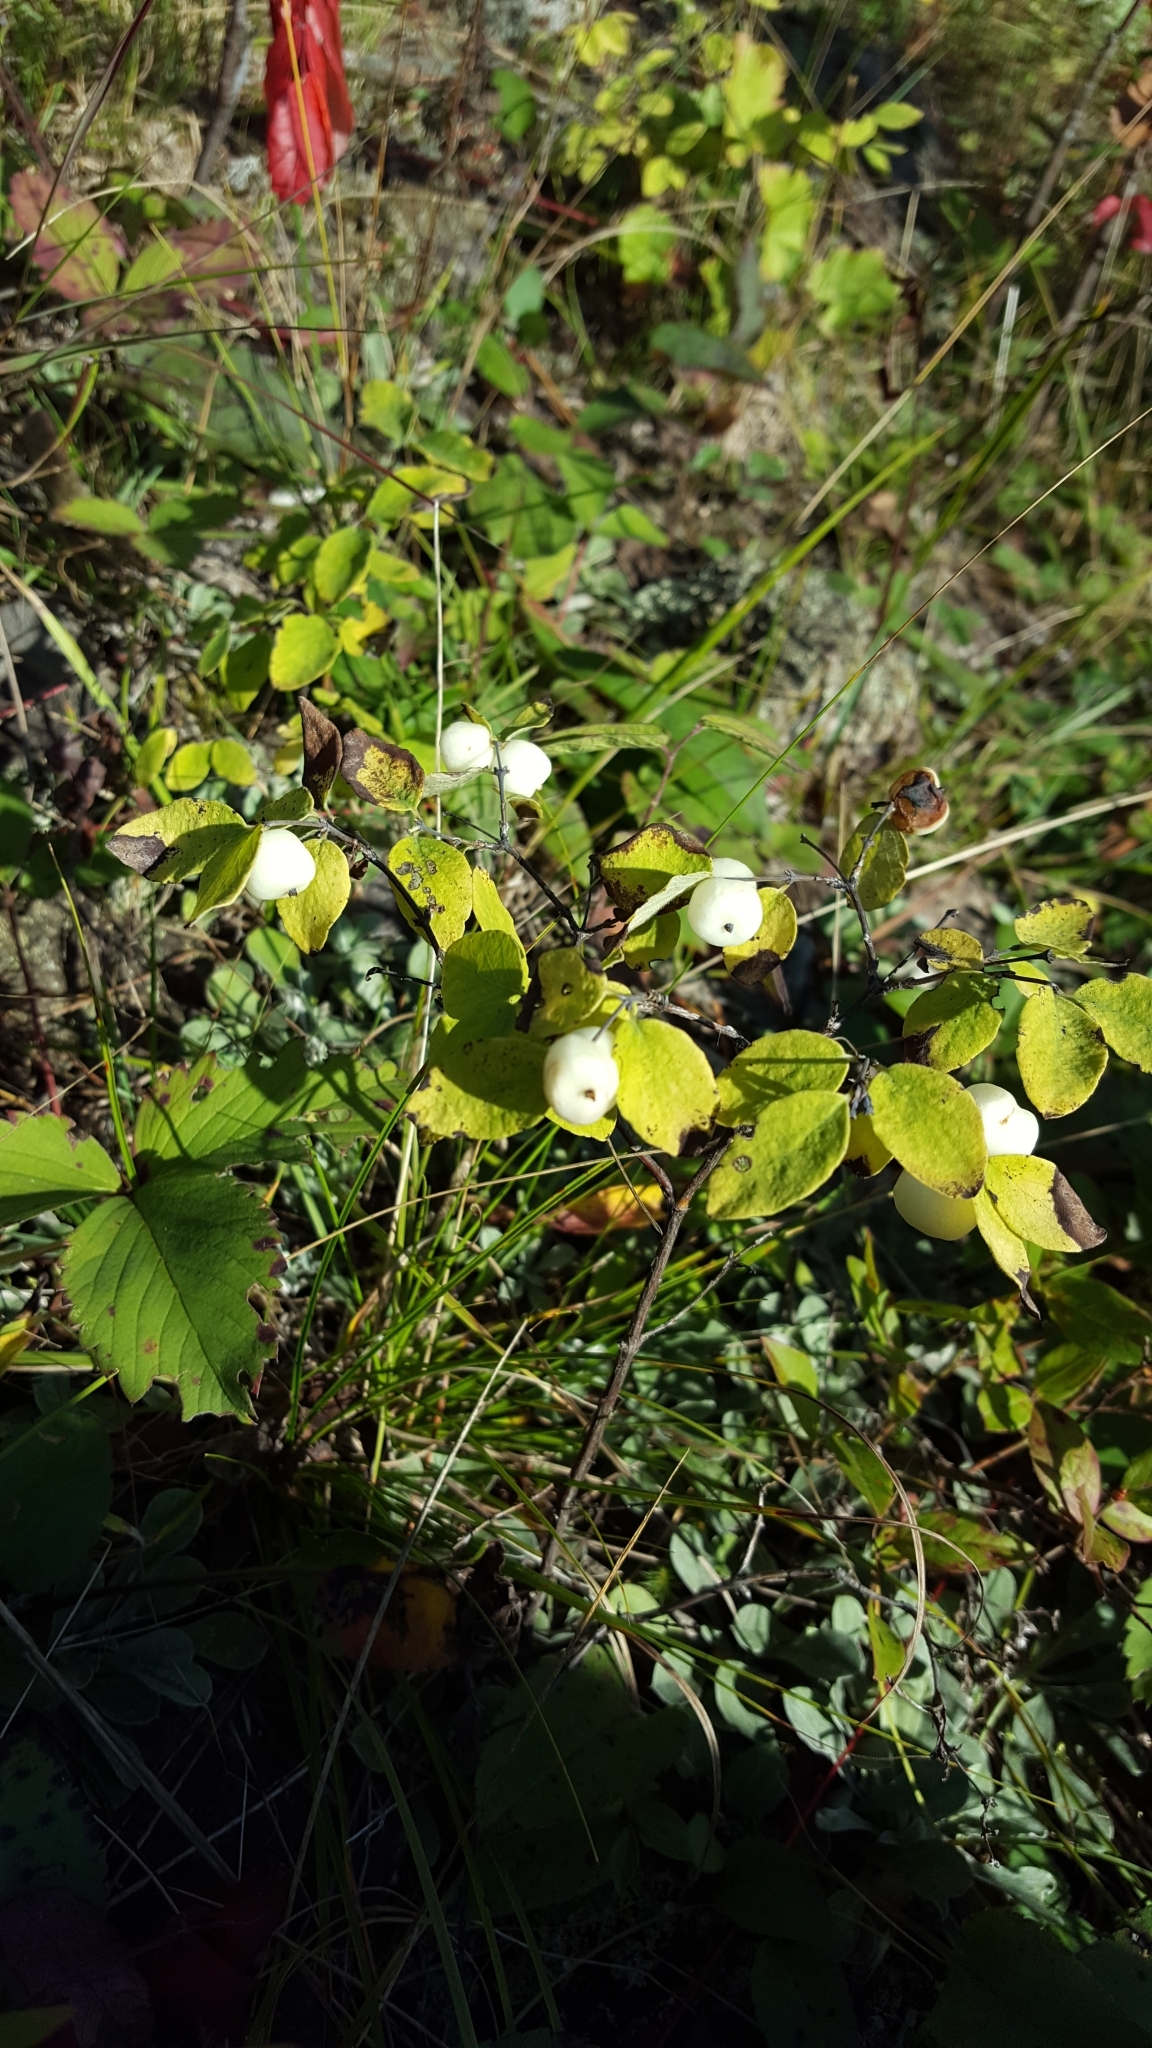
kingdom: Plantae
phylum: Tracheophyta
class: Magnoliopsida
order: Dipsacales
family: Caprifoliaceae
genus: Symphoricarpos
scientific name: Symphoricarpos albus
